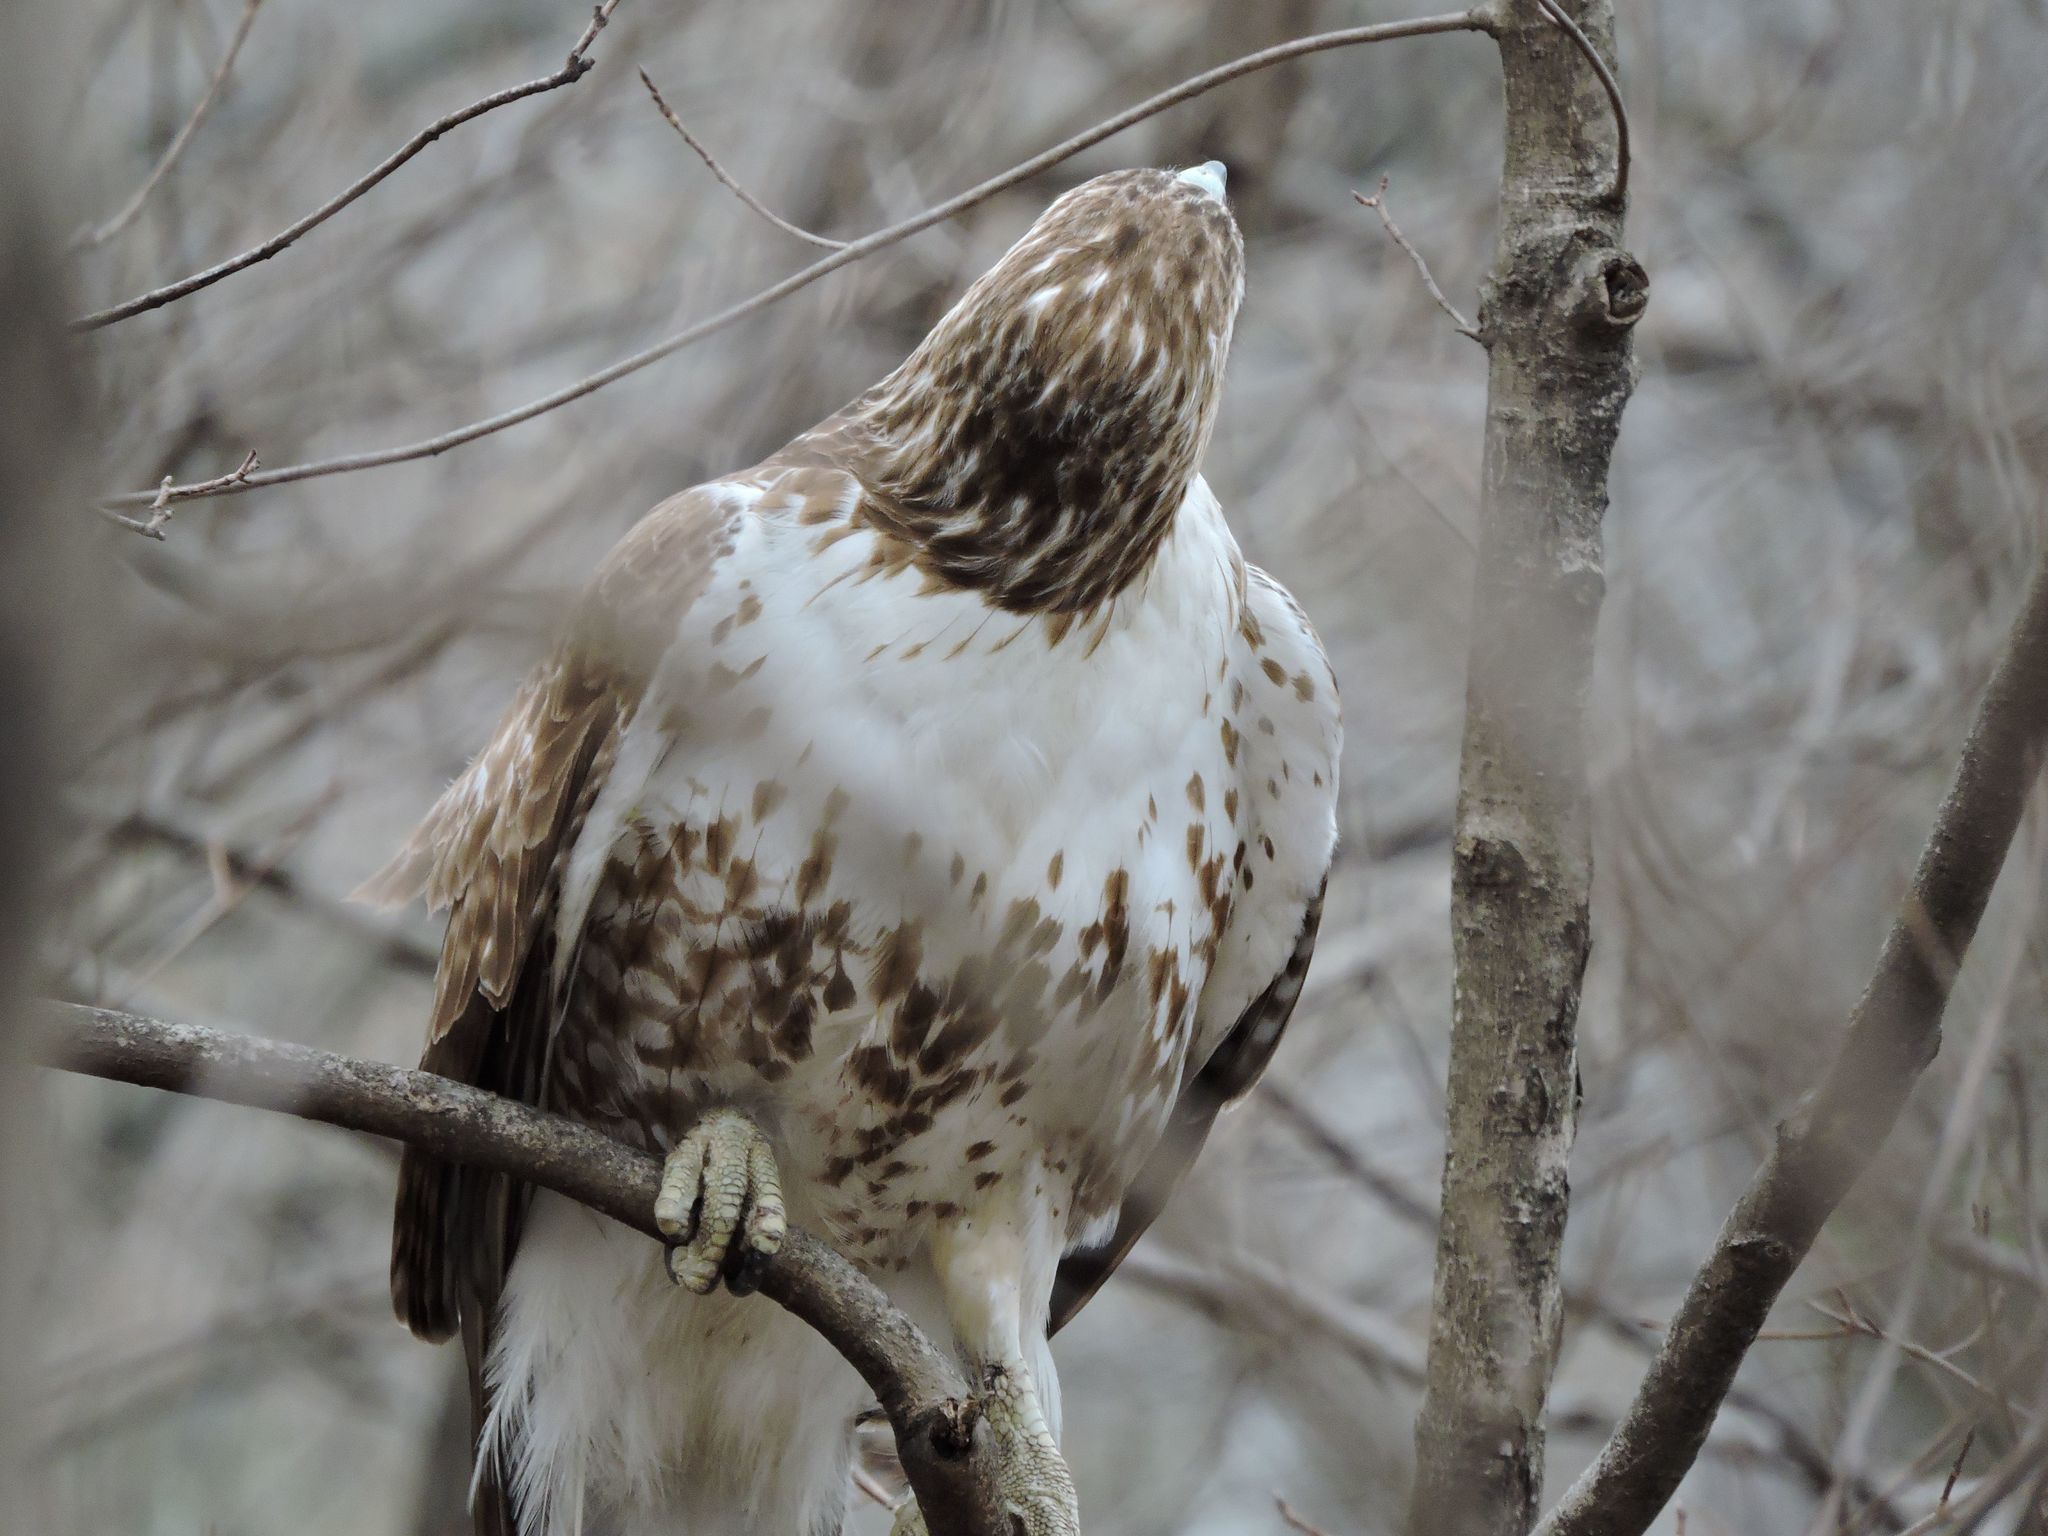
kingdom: Animalia
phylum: Chordata
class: Aves
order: Accipitriformes
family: Accipitridae
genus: Buteo
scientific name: Buteo jamaicensis
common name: Red-tailed hawk
